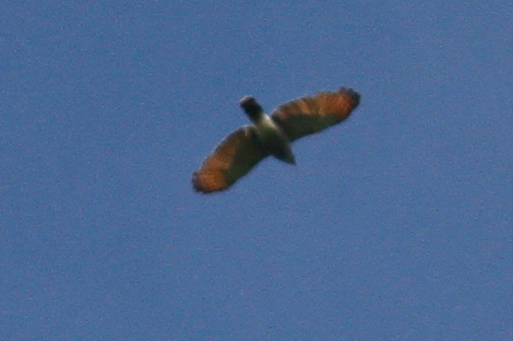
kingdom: Animalia
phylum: Chordata
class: Aves
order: Accipitriformes
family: Accipitridae
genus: Rupornis
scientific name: Rupornis magnirostris
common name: Roadside hawk
